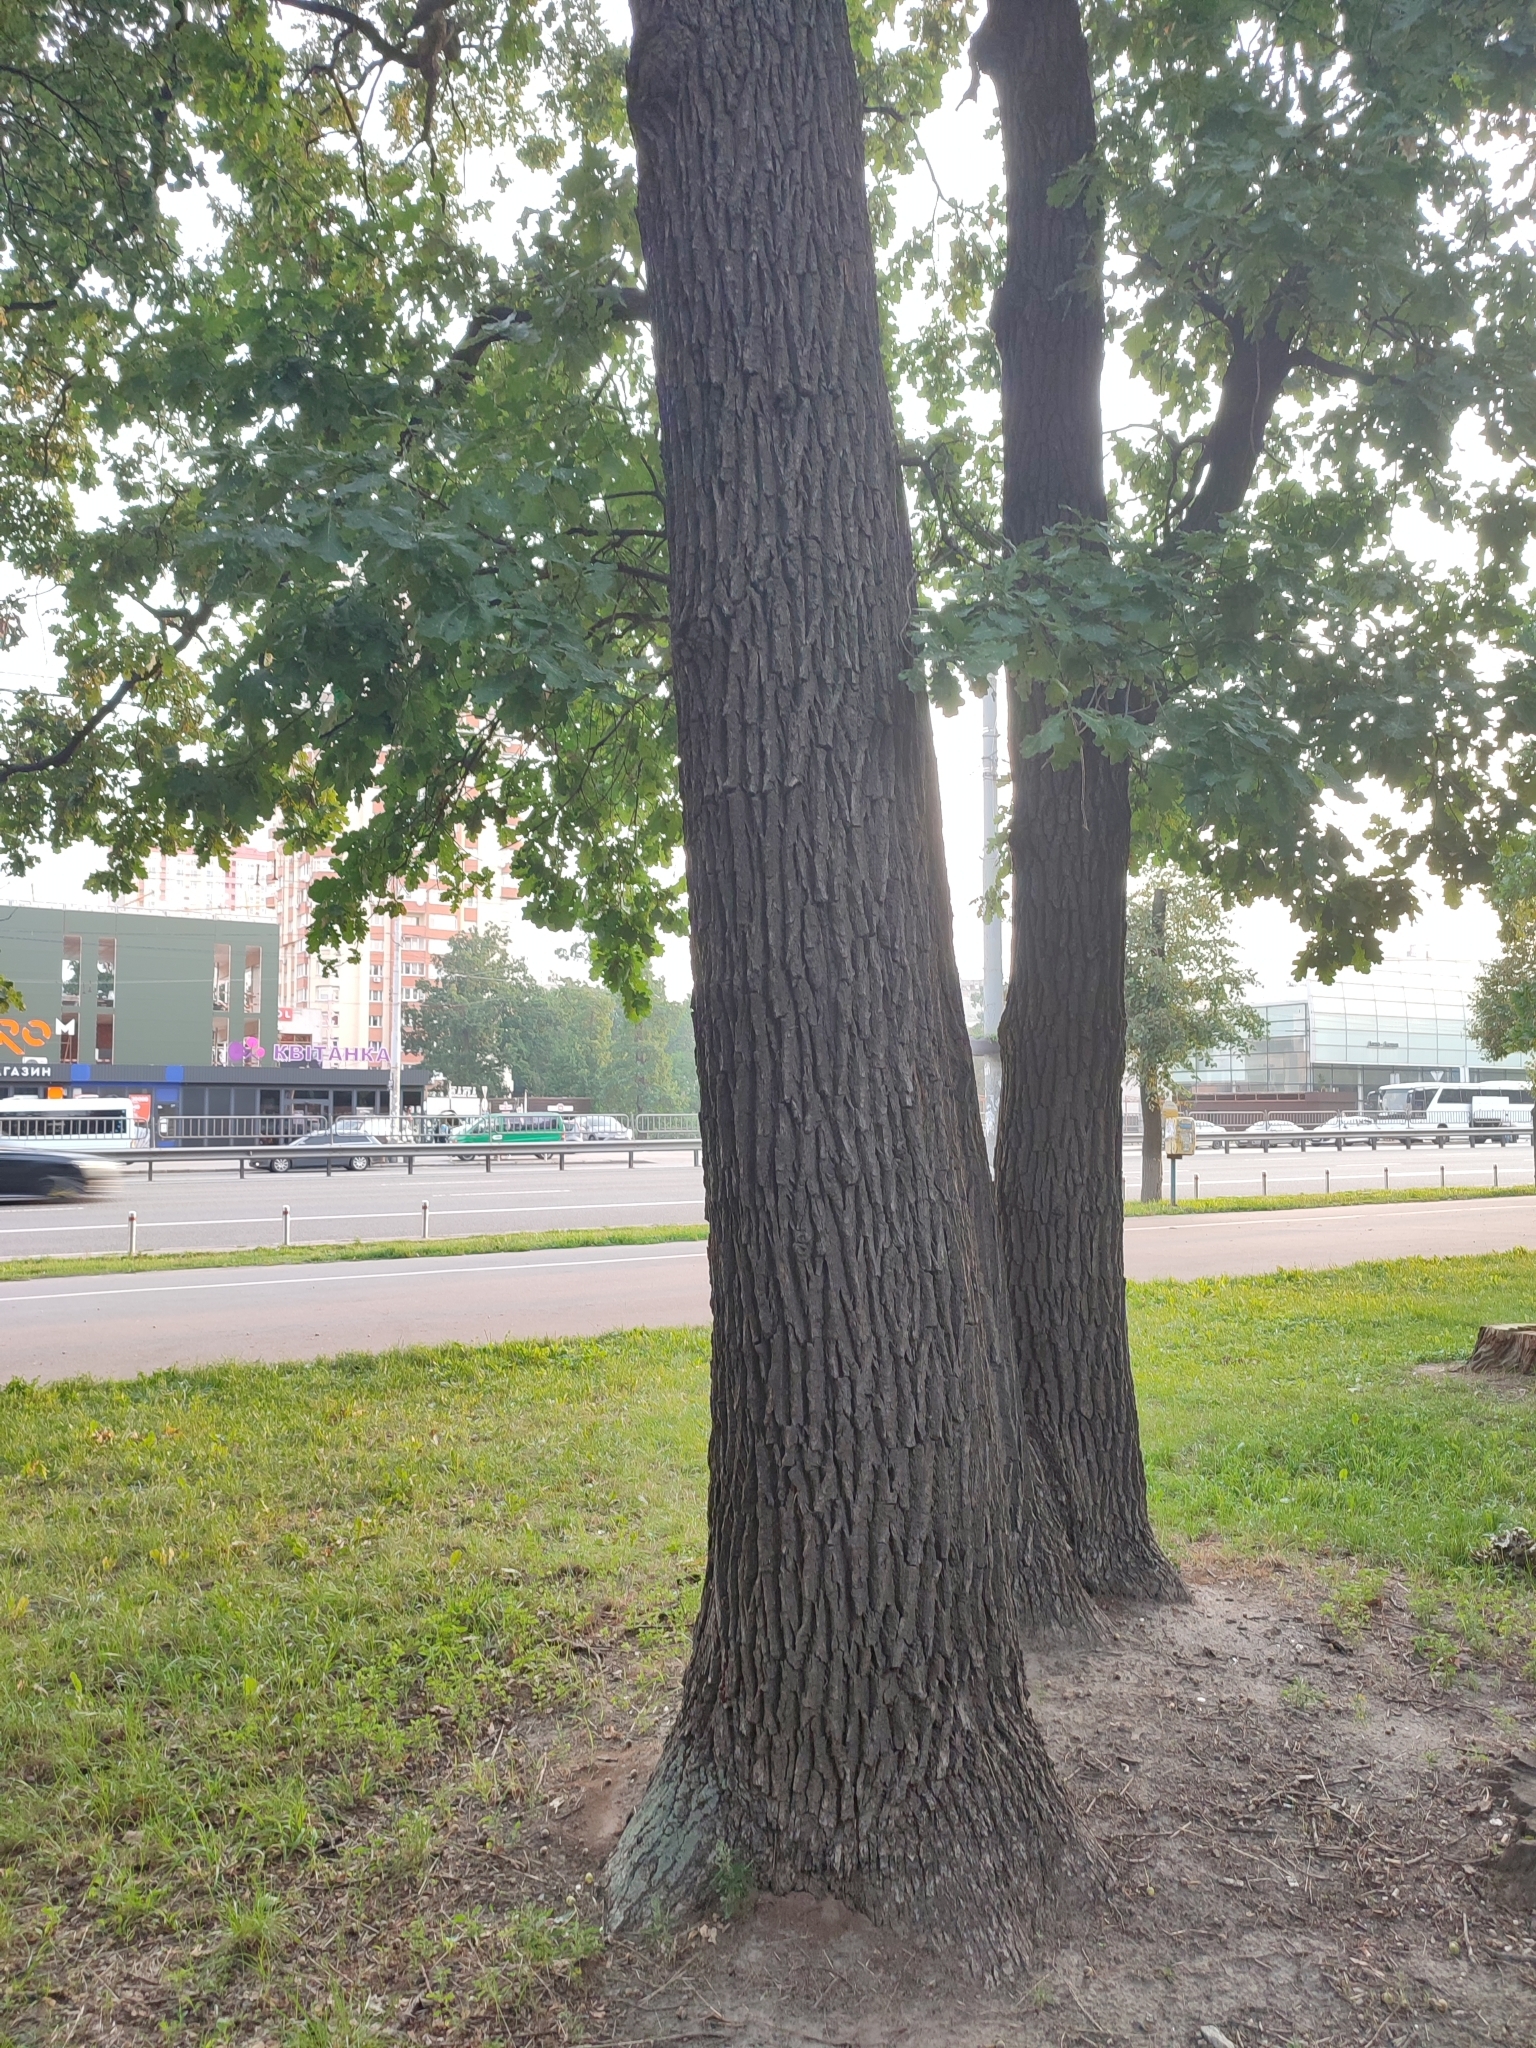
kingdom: Plantae
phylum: Tracheophyta
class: Magnoliopsida
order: Fagales
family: Fagaceae
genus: Quercus
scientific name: Quercus robur
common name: Pedunculate oak
